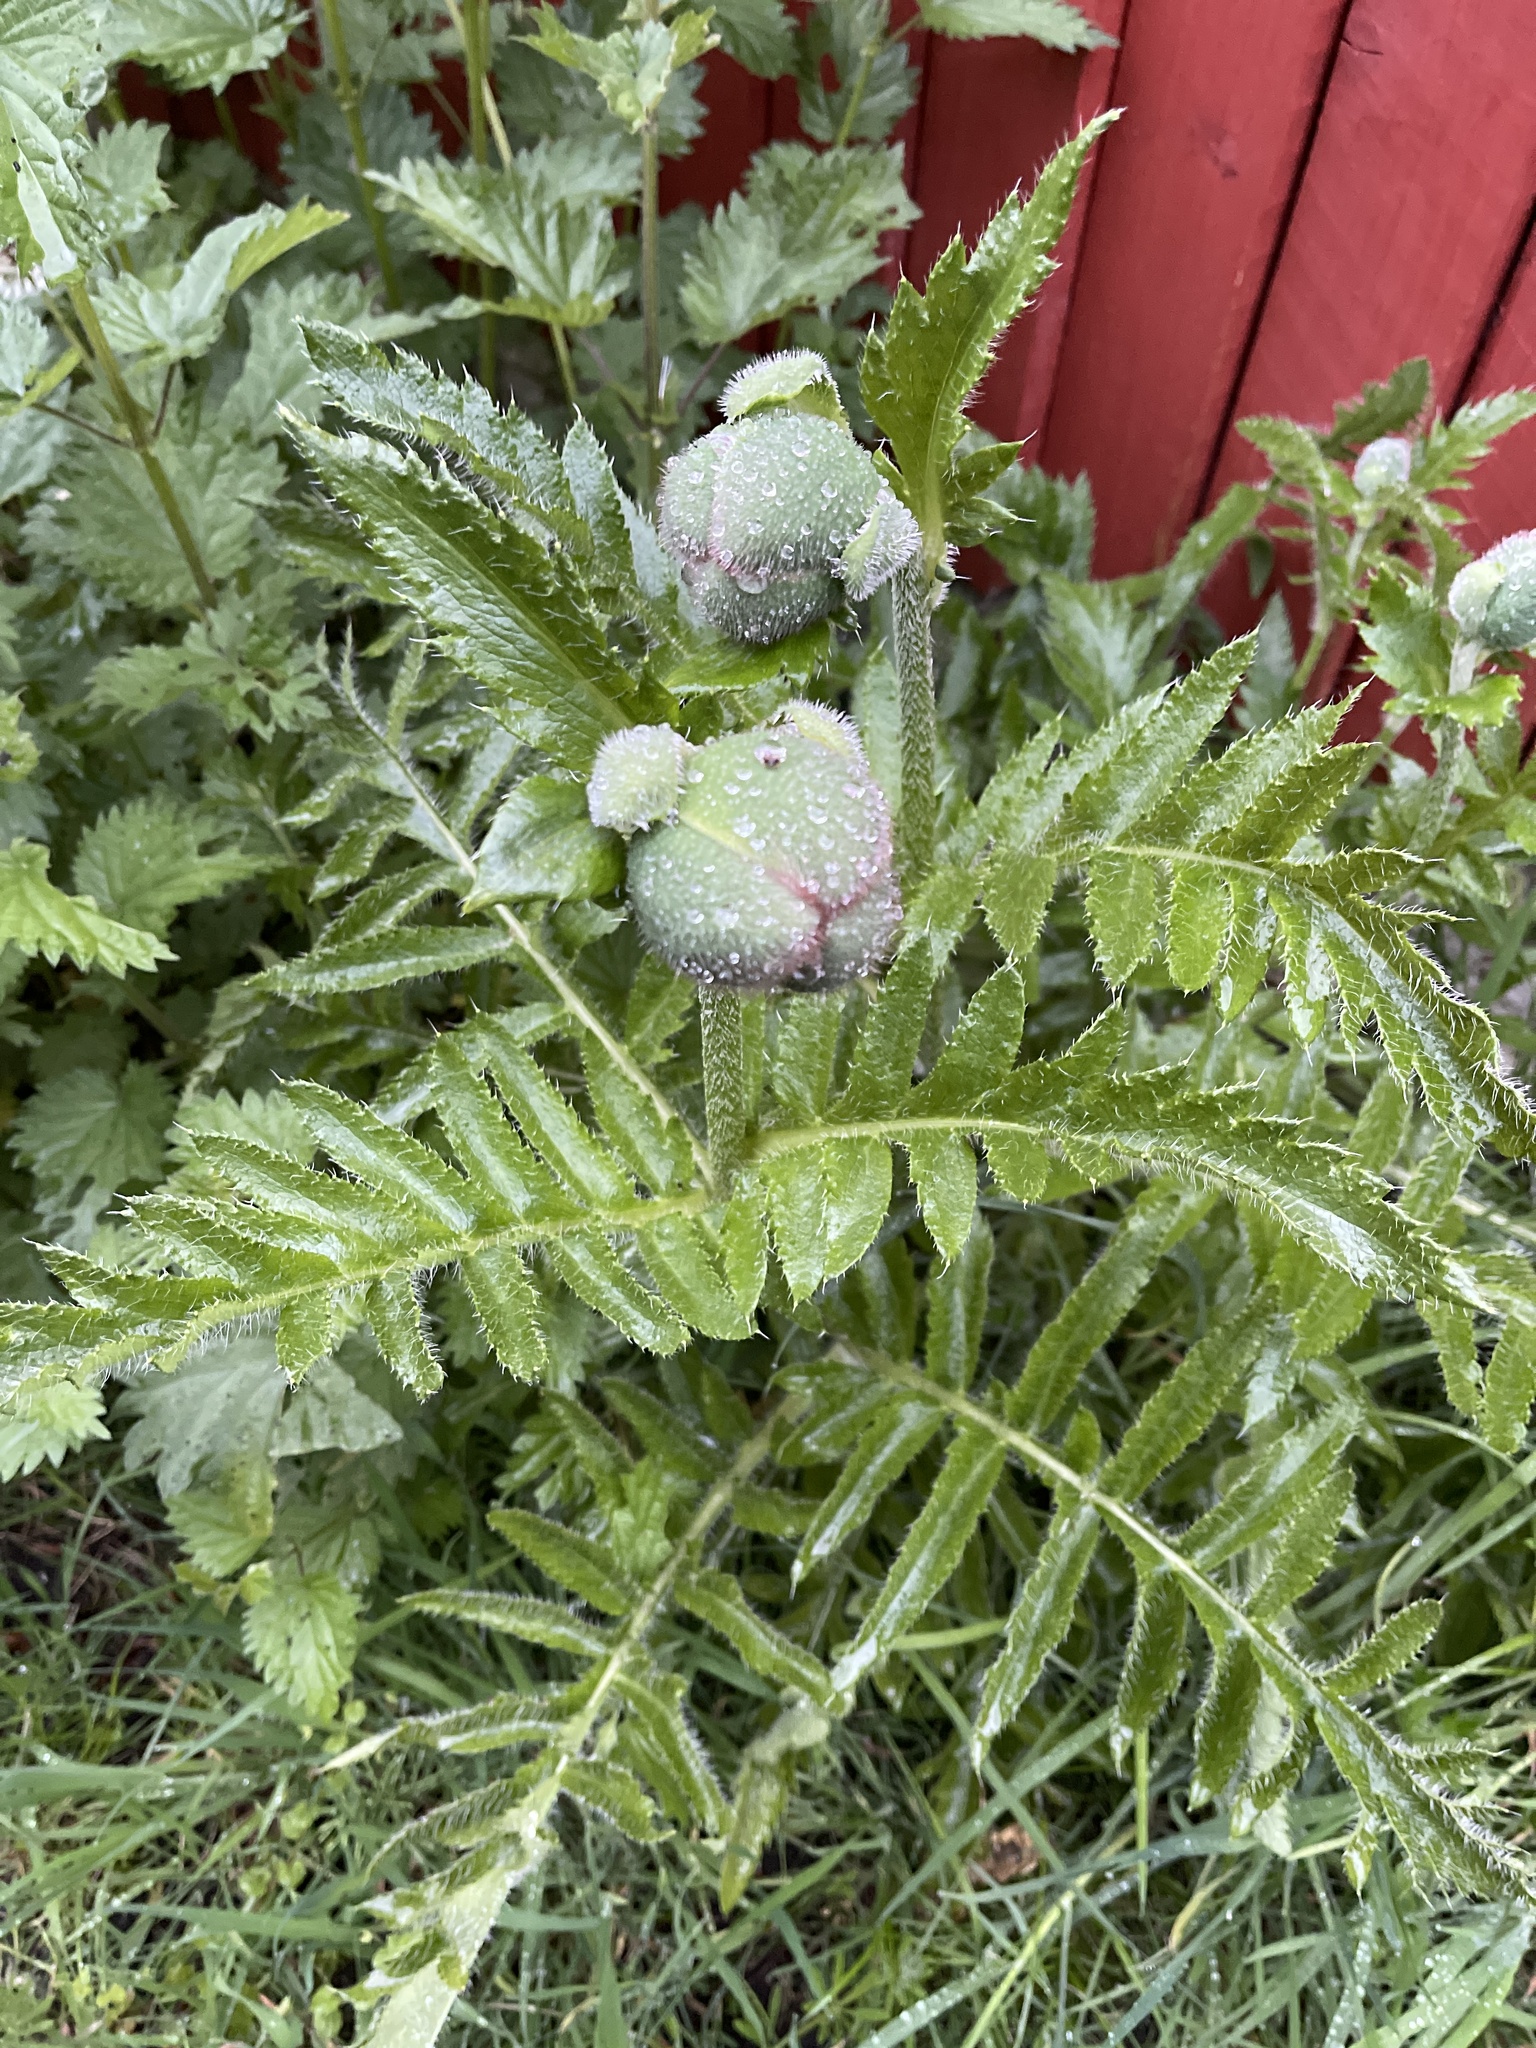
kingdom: Plantae
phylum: Tracheophyta
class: Magnoliopsida
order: Ranunculales
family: Papaveraceae
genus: Papaver
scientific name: Papaver orientale
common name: Oriental poppy
